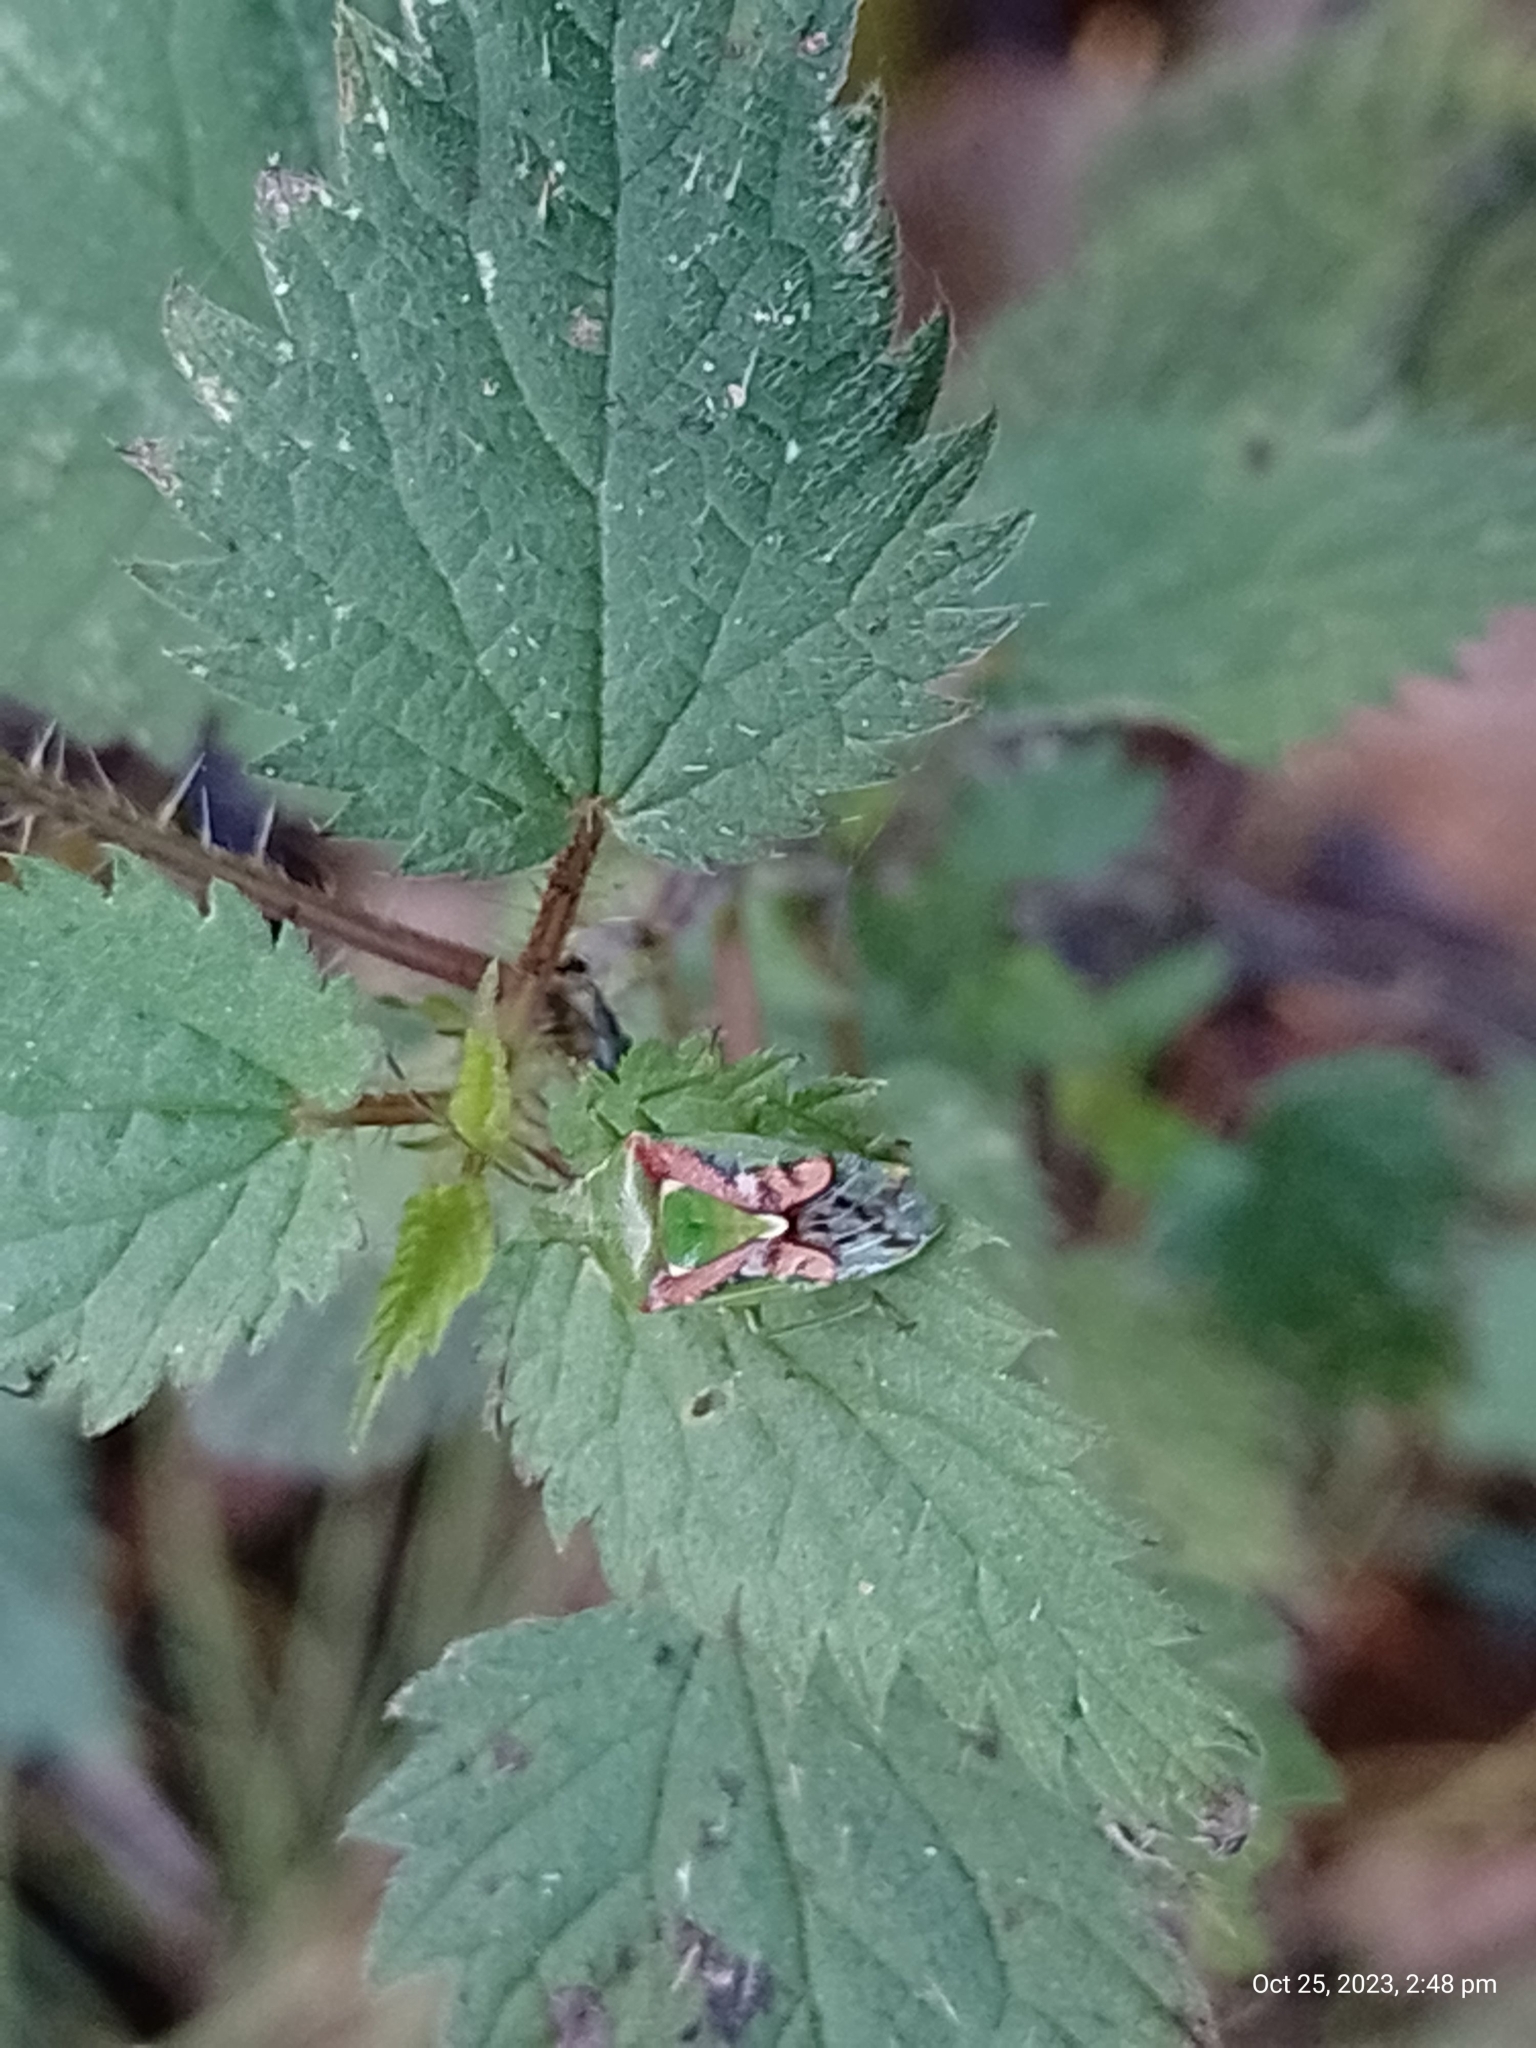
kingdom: Animalia
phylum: Arthropoda
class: Insecta
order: Hemiptera
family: Acanthosomatidae
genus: Cyphostethus
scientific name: Cyphostethus tristriatus
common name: Juniper shieldbug
